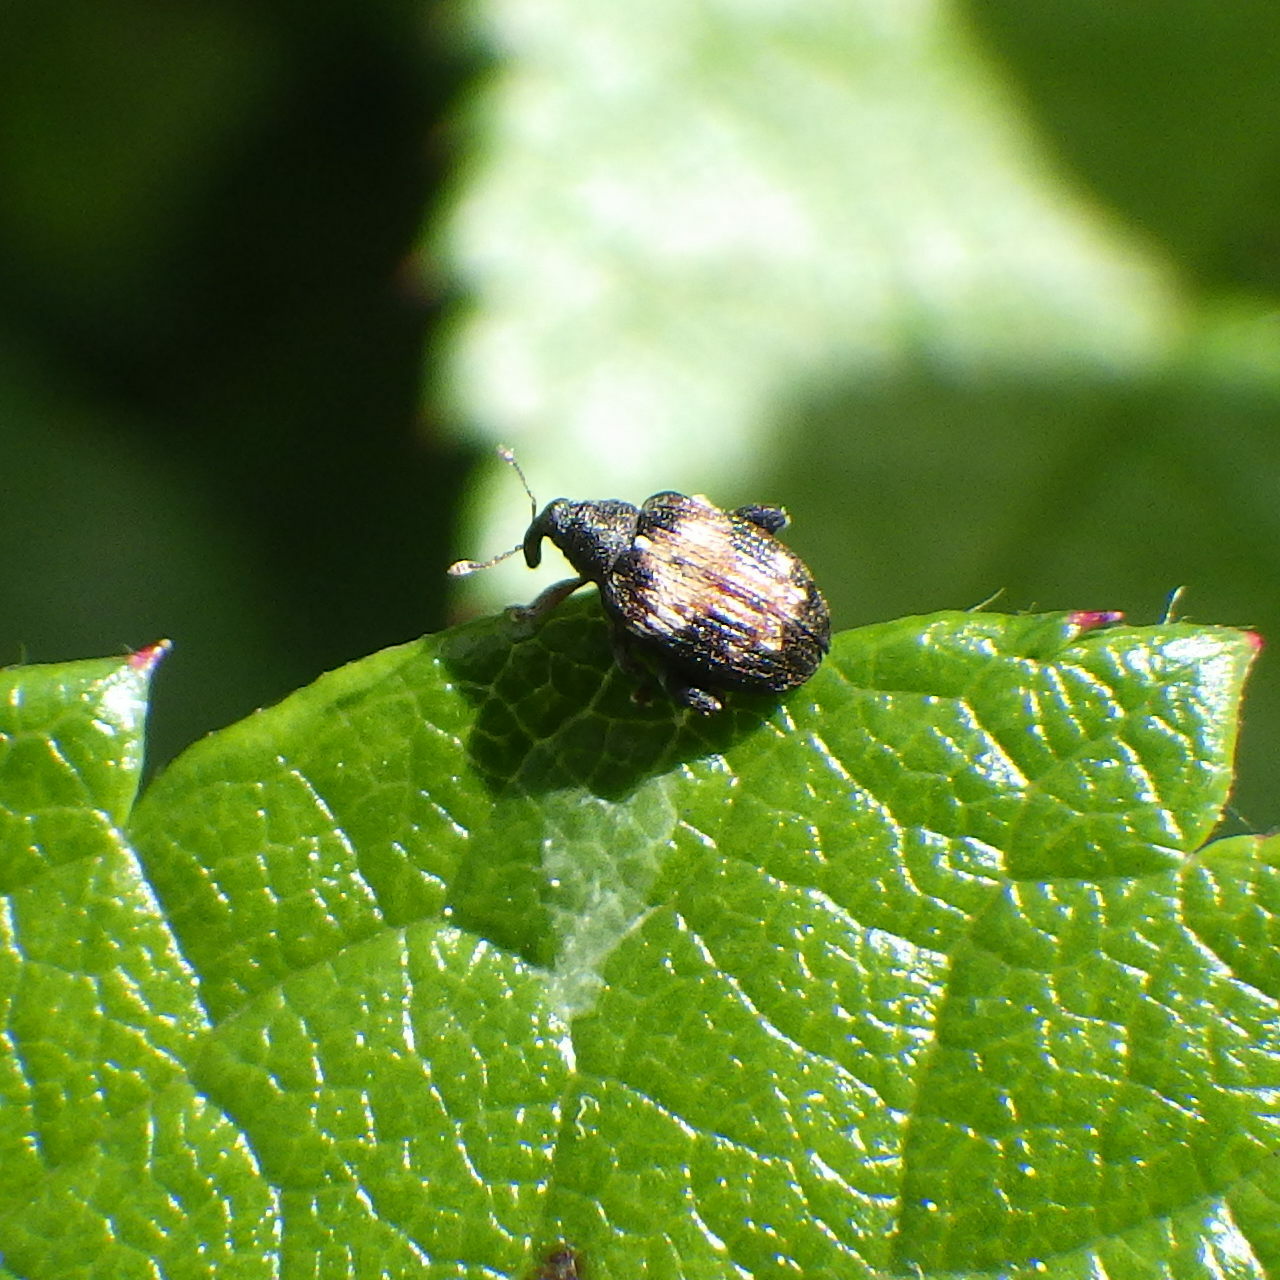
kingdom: Animalia
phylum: Arthropoda
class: Insecta
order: Coleoptera
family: Curculionidae
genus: Anthonomus
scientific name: Anthonomus signatus
